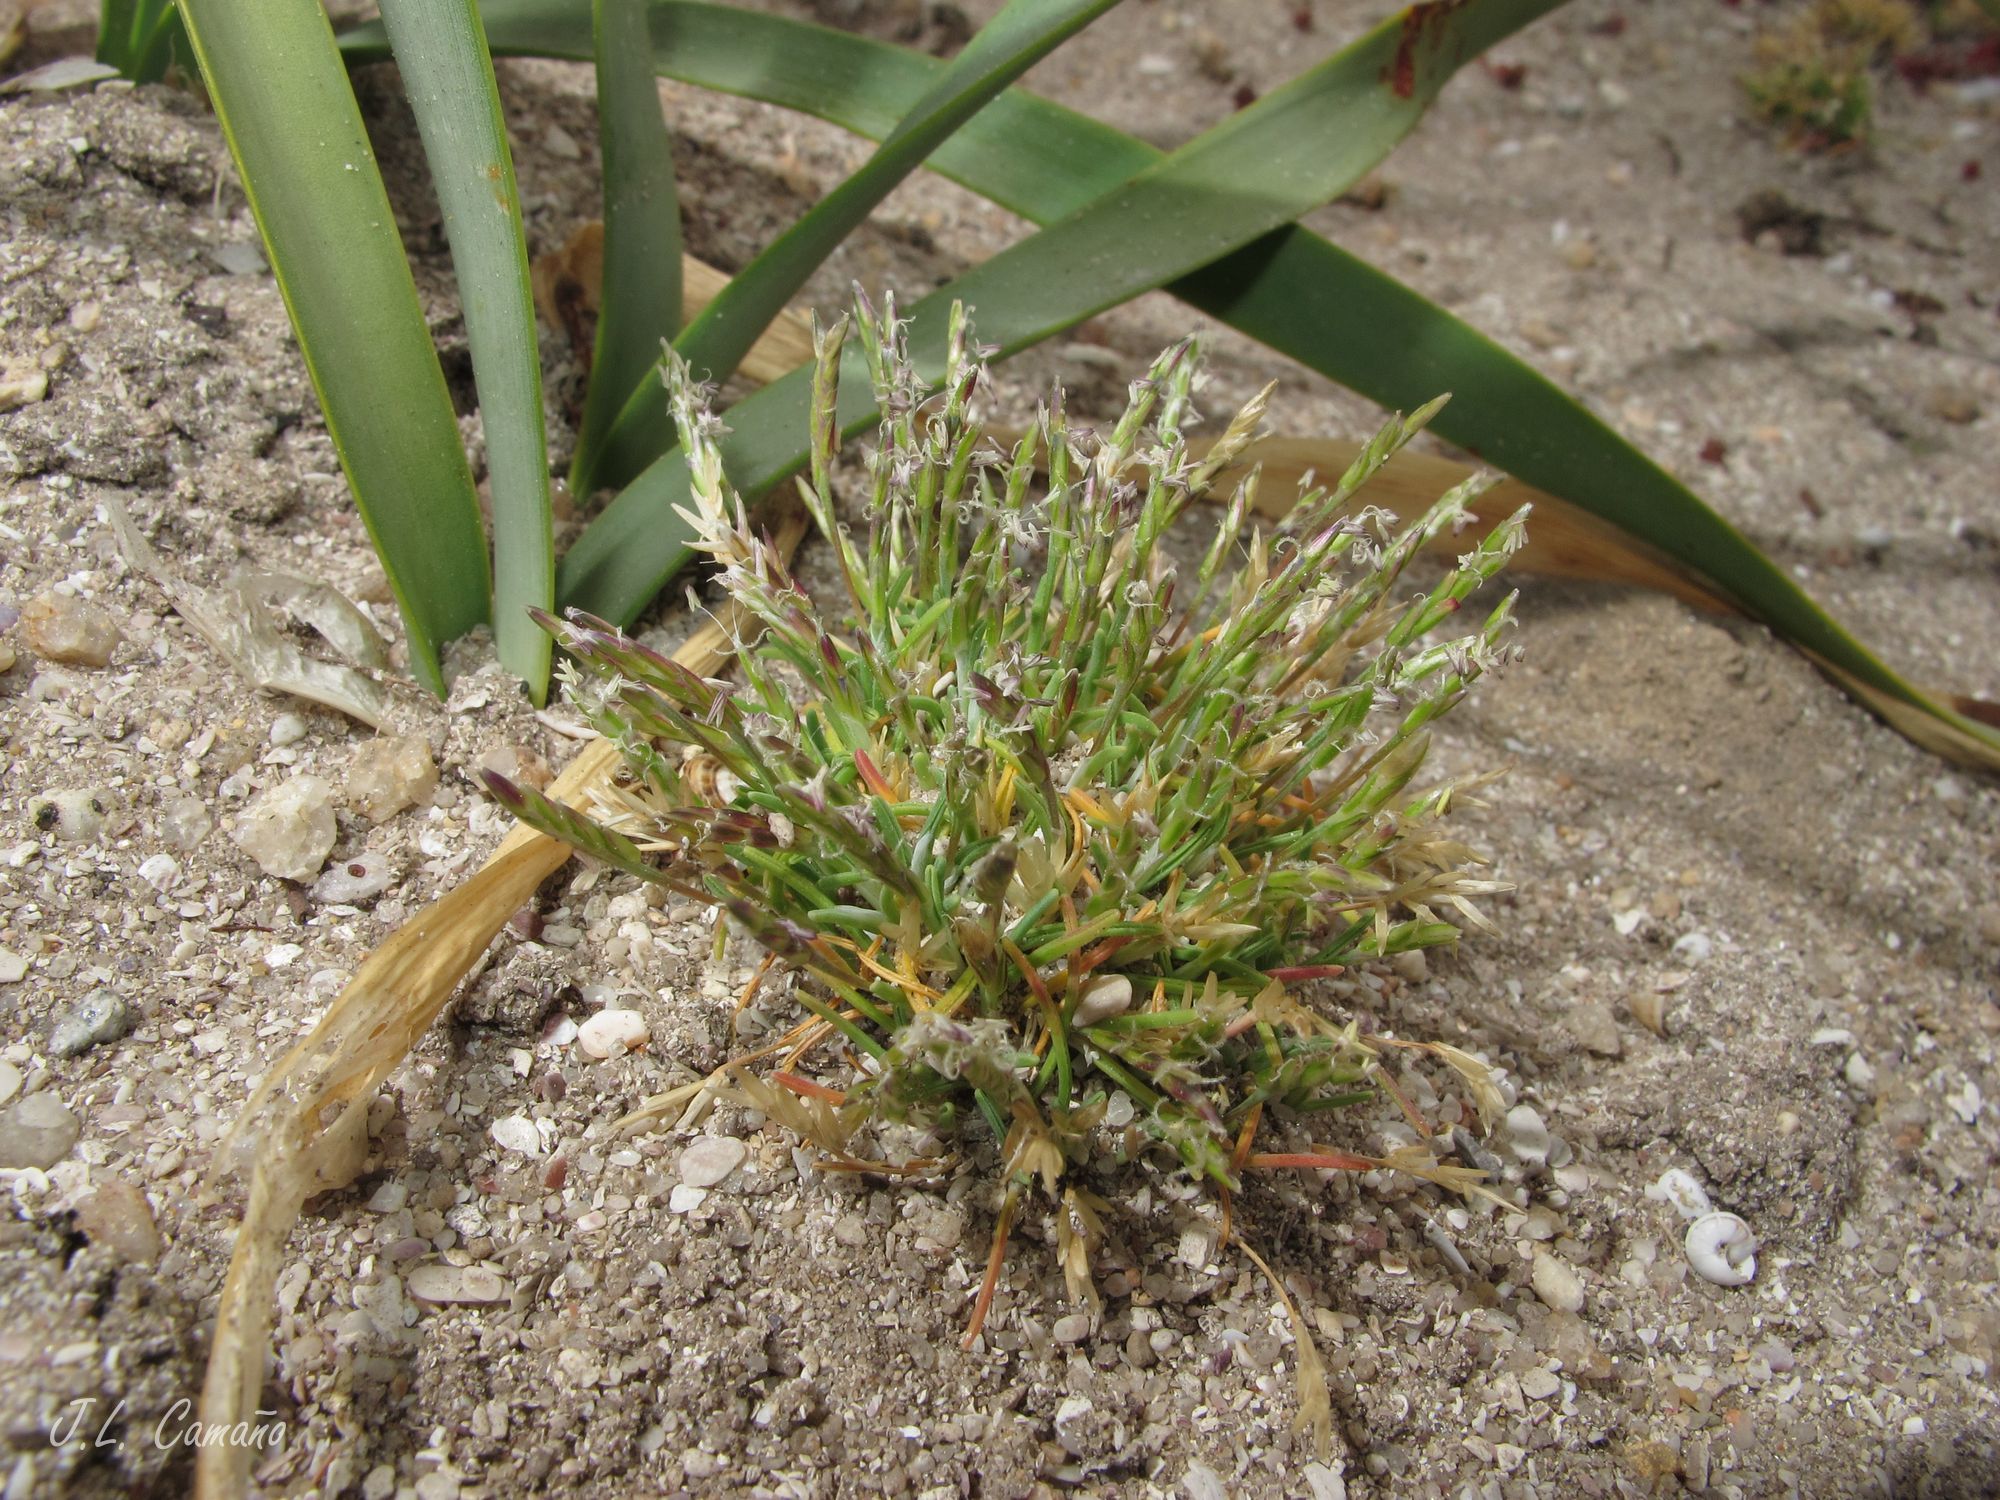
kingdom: Plantae
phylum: Tracheophyta
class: Liliopsida
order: Poales
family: Poaceae
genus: Mibora
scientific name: Mibora minima
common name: Early sand-grass
